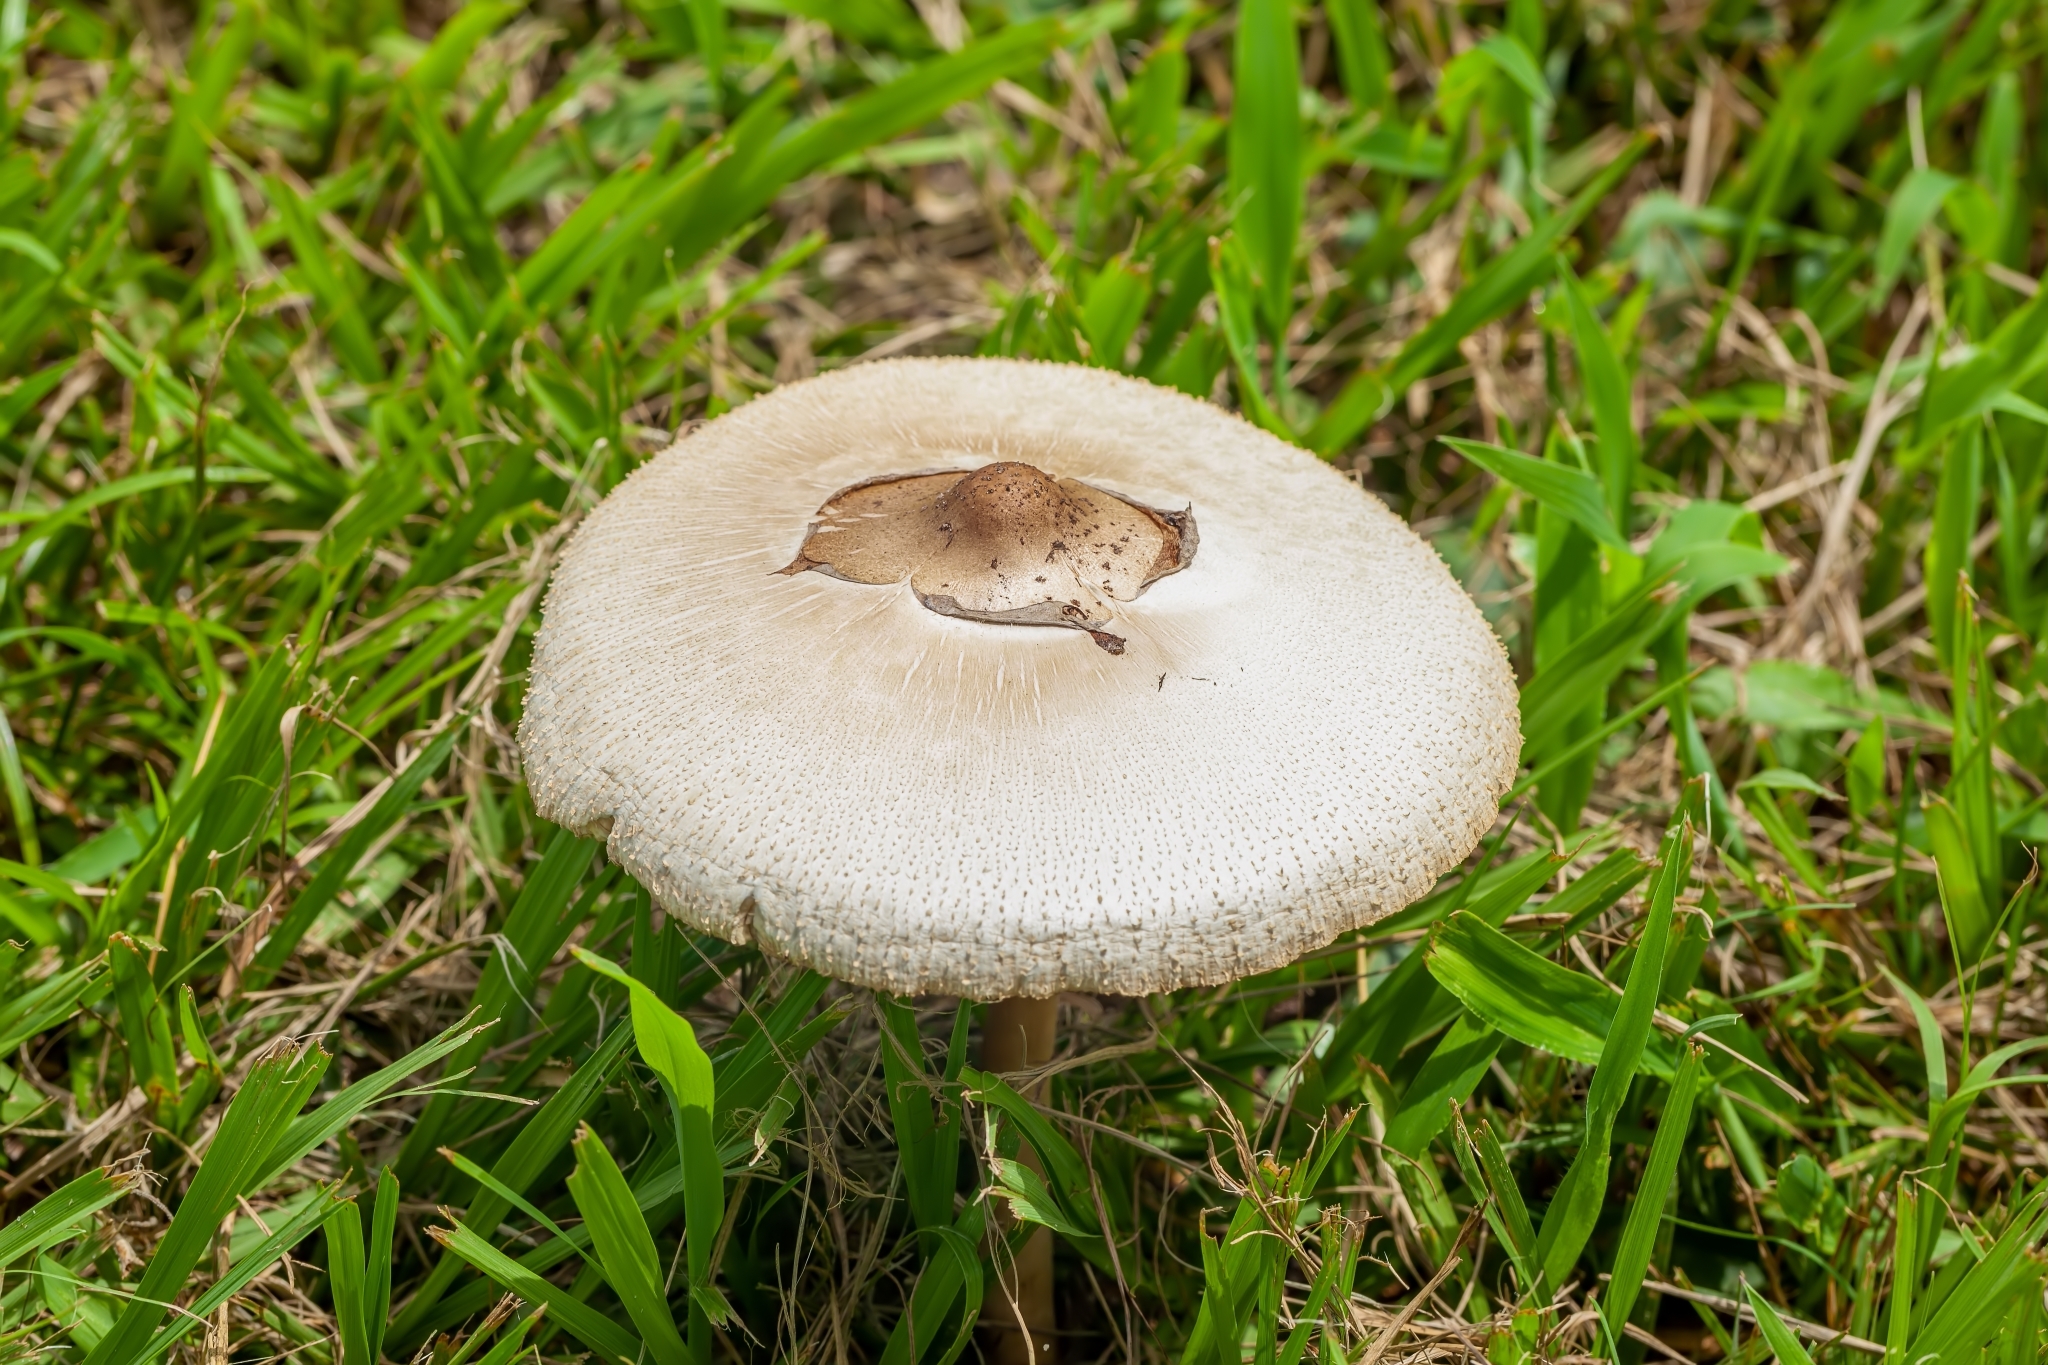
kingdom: Fungi
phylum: Basidiomycota
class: Agaricomycetes
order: Agaricales
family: Agaricaceae
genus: Chlorophyllum
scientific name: Chlorophyllum molybdites
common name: False parasol
